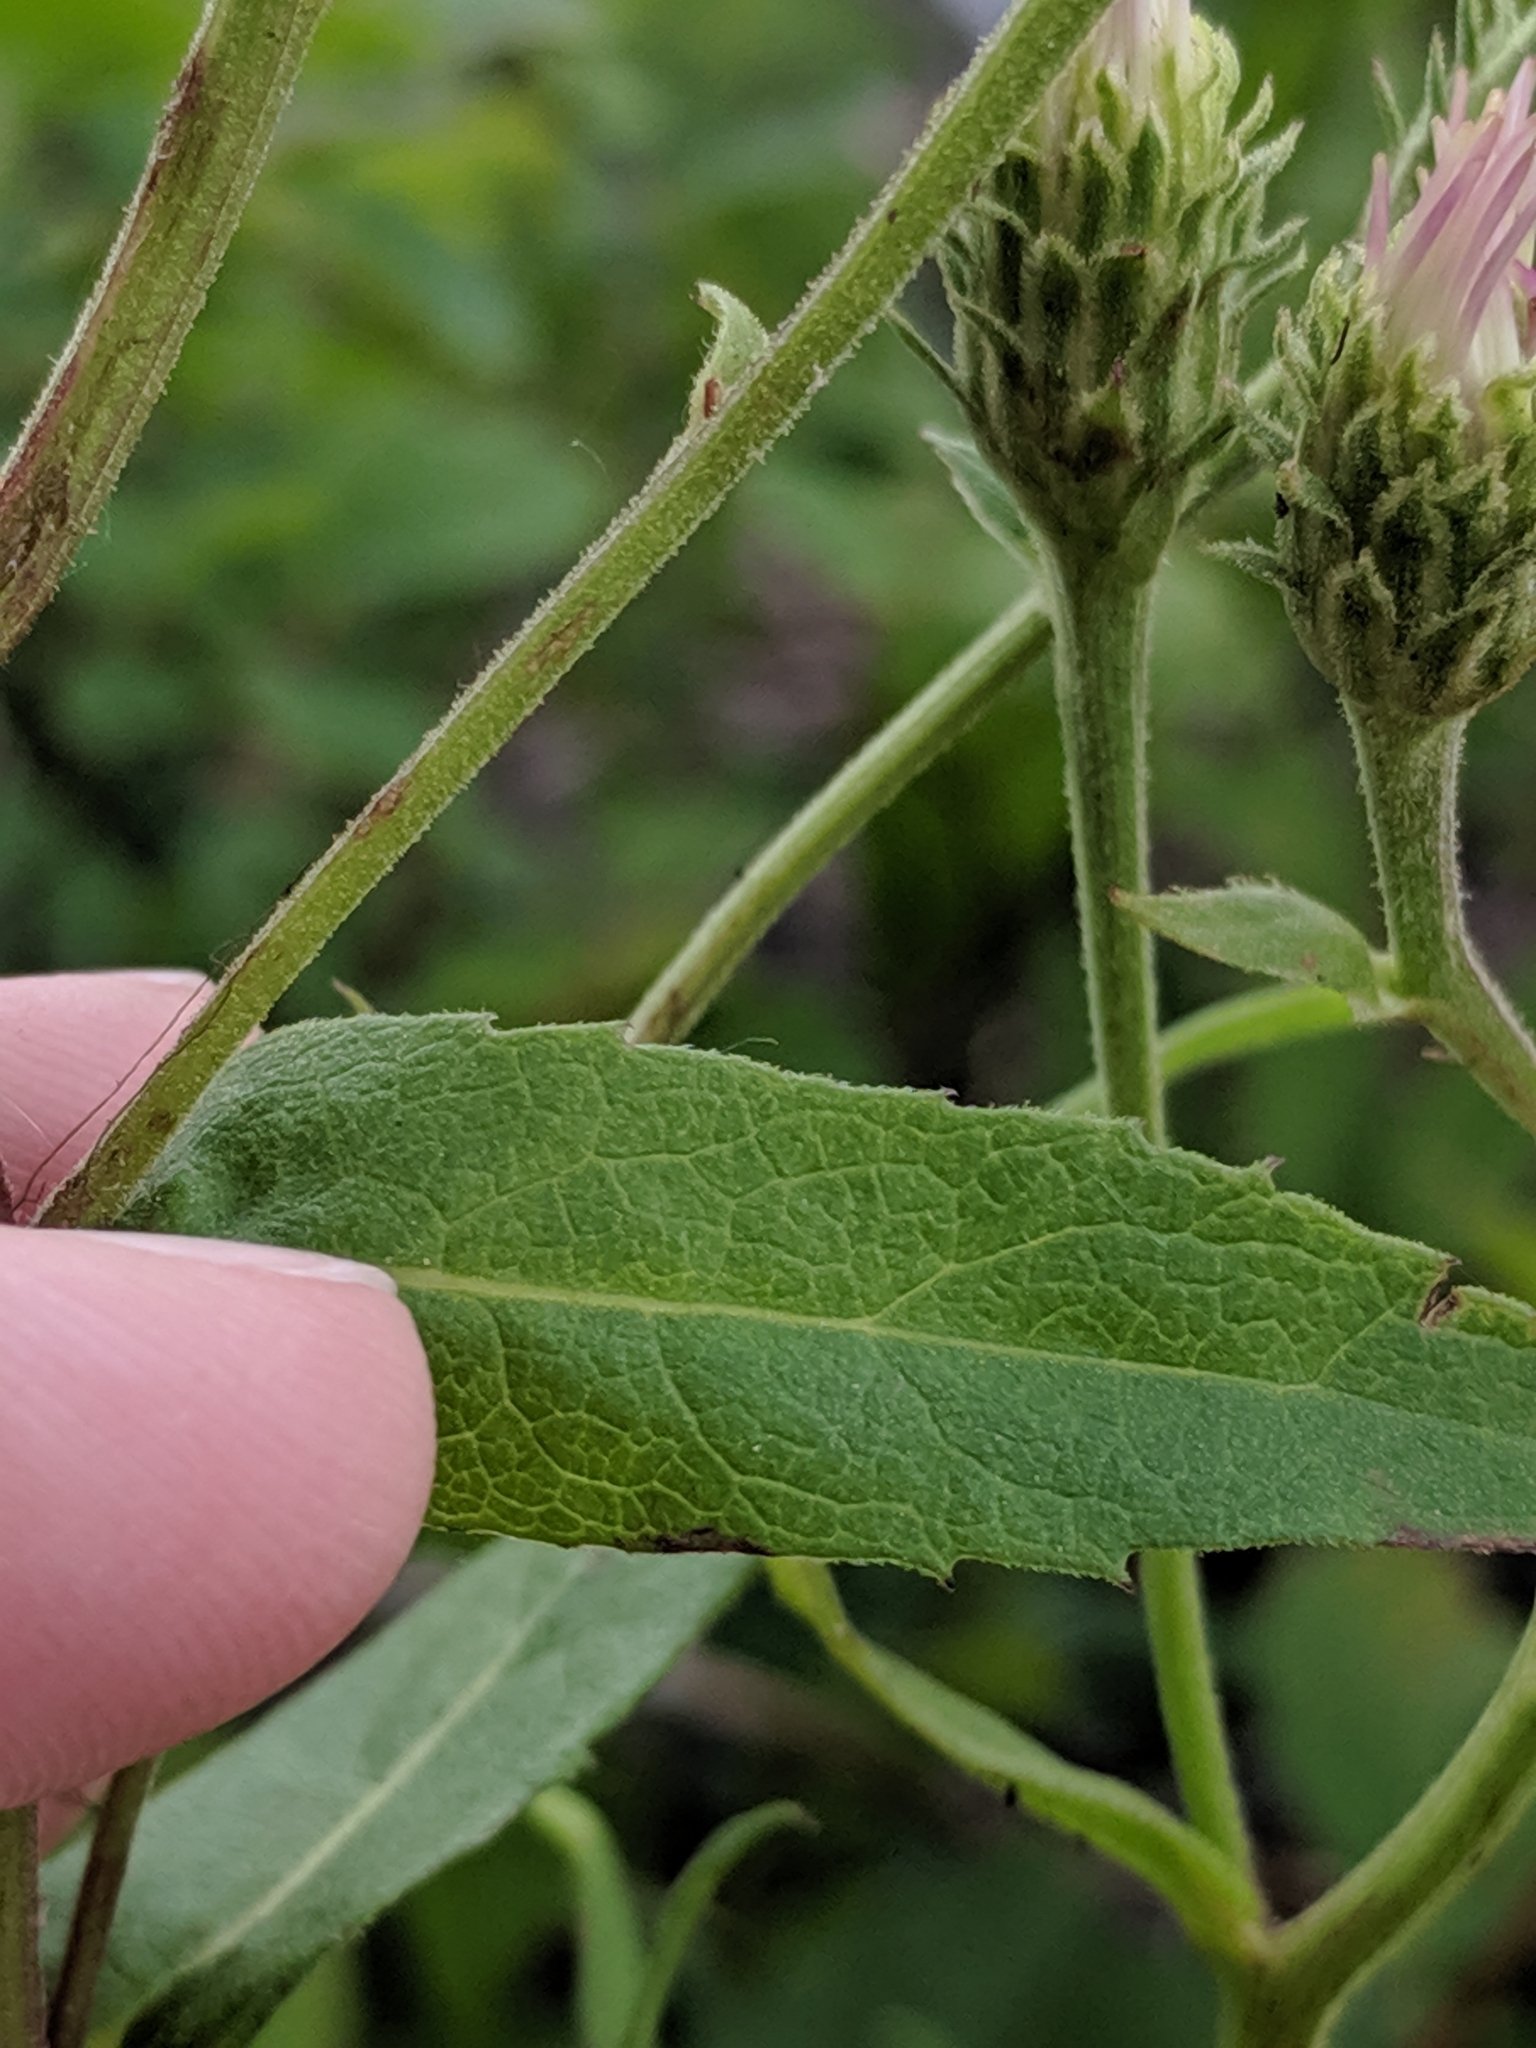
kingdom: Plantae
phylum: Tracheophyta
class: Magnoliopsida
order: Asterales
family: Asteraceae
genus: Eurybia
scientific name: Eurybia conspicua
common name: Showy aster
